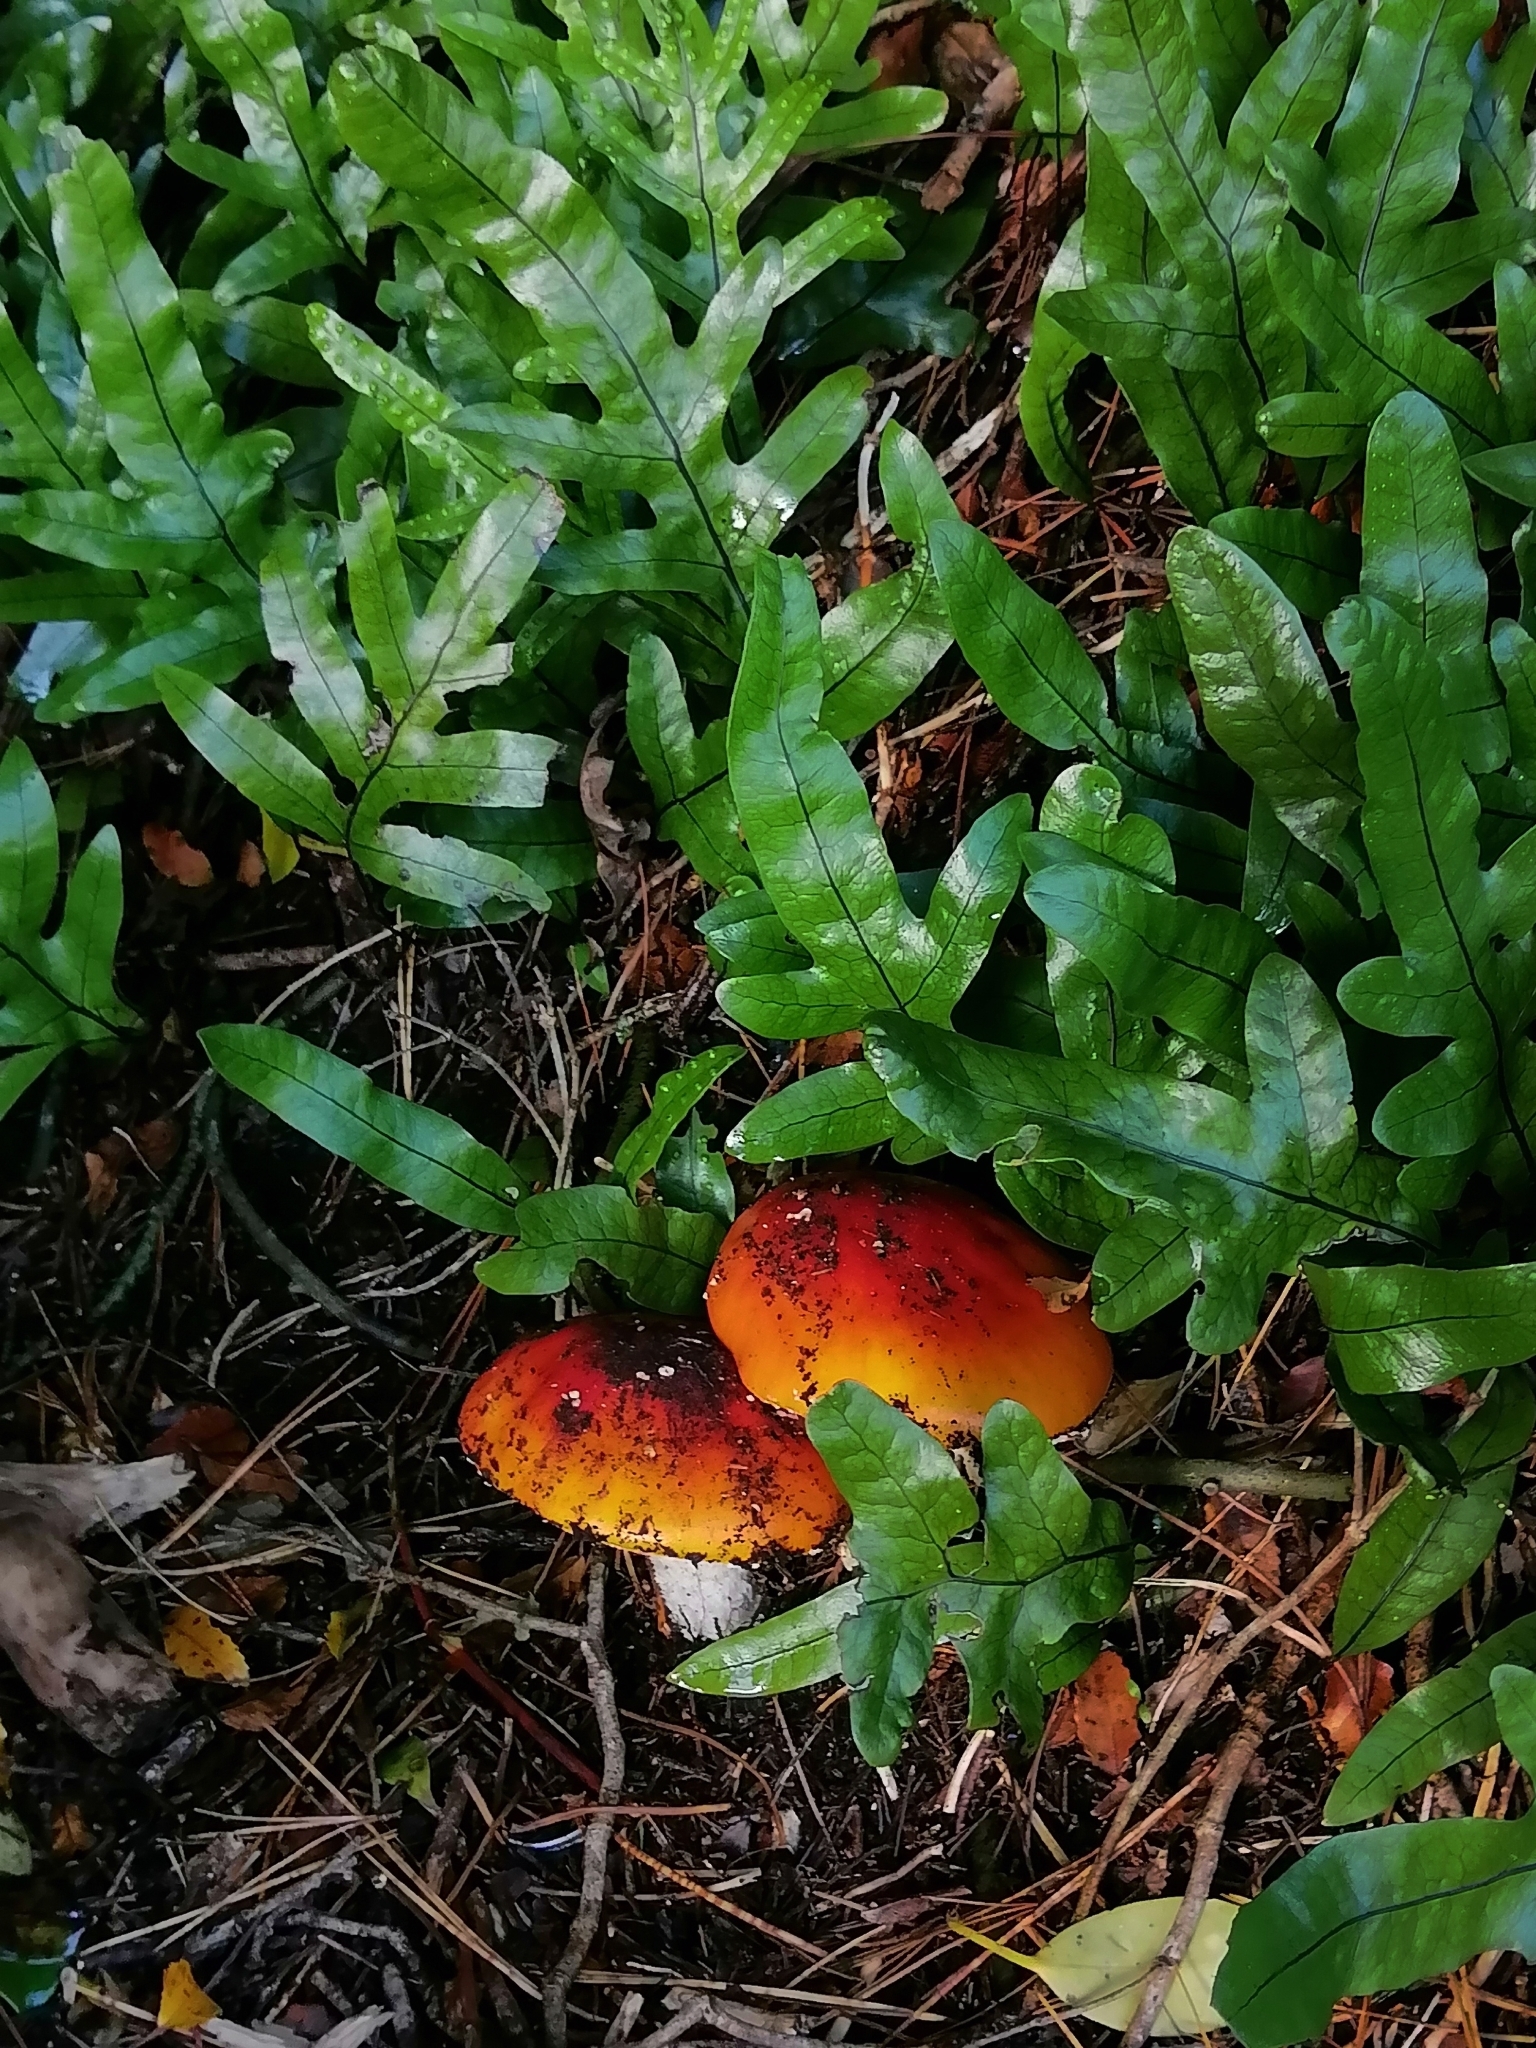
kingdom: Fungi
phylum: Basidiomycota
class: Agaricomycetes
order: Agaricales
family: Amanitaceae
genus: Amanita
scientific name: Amanita muscaria
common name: Fly agaric
